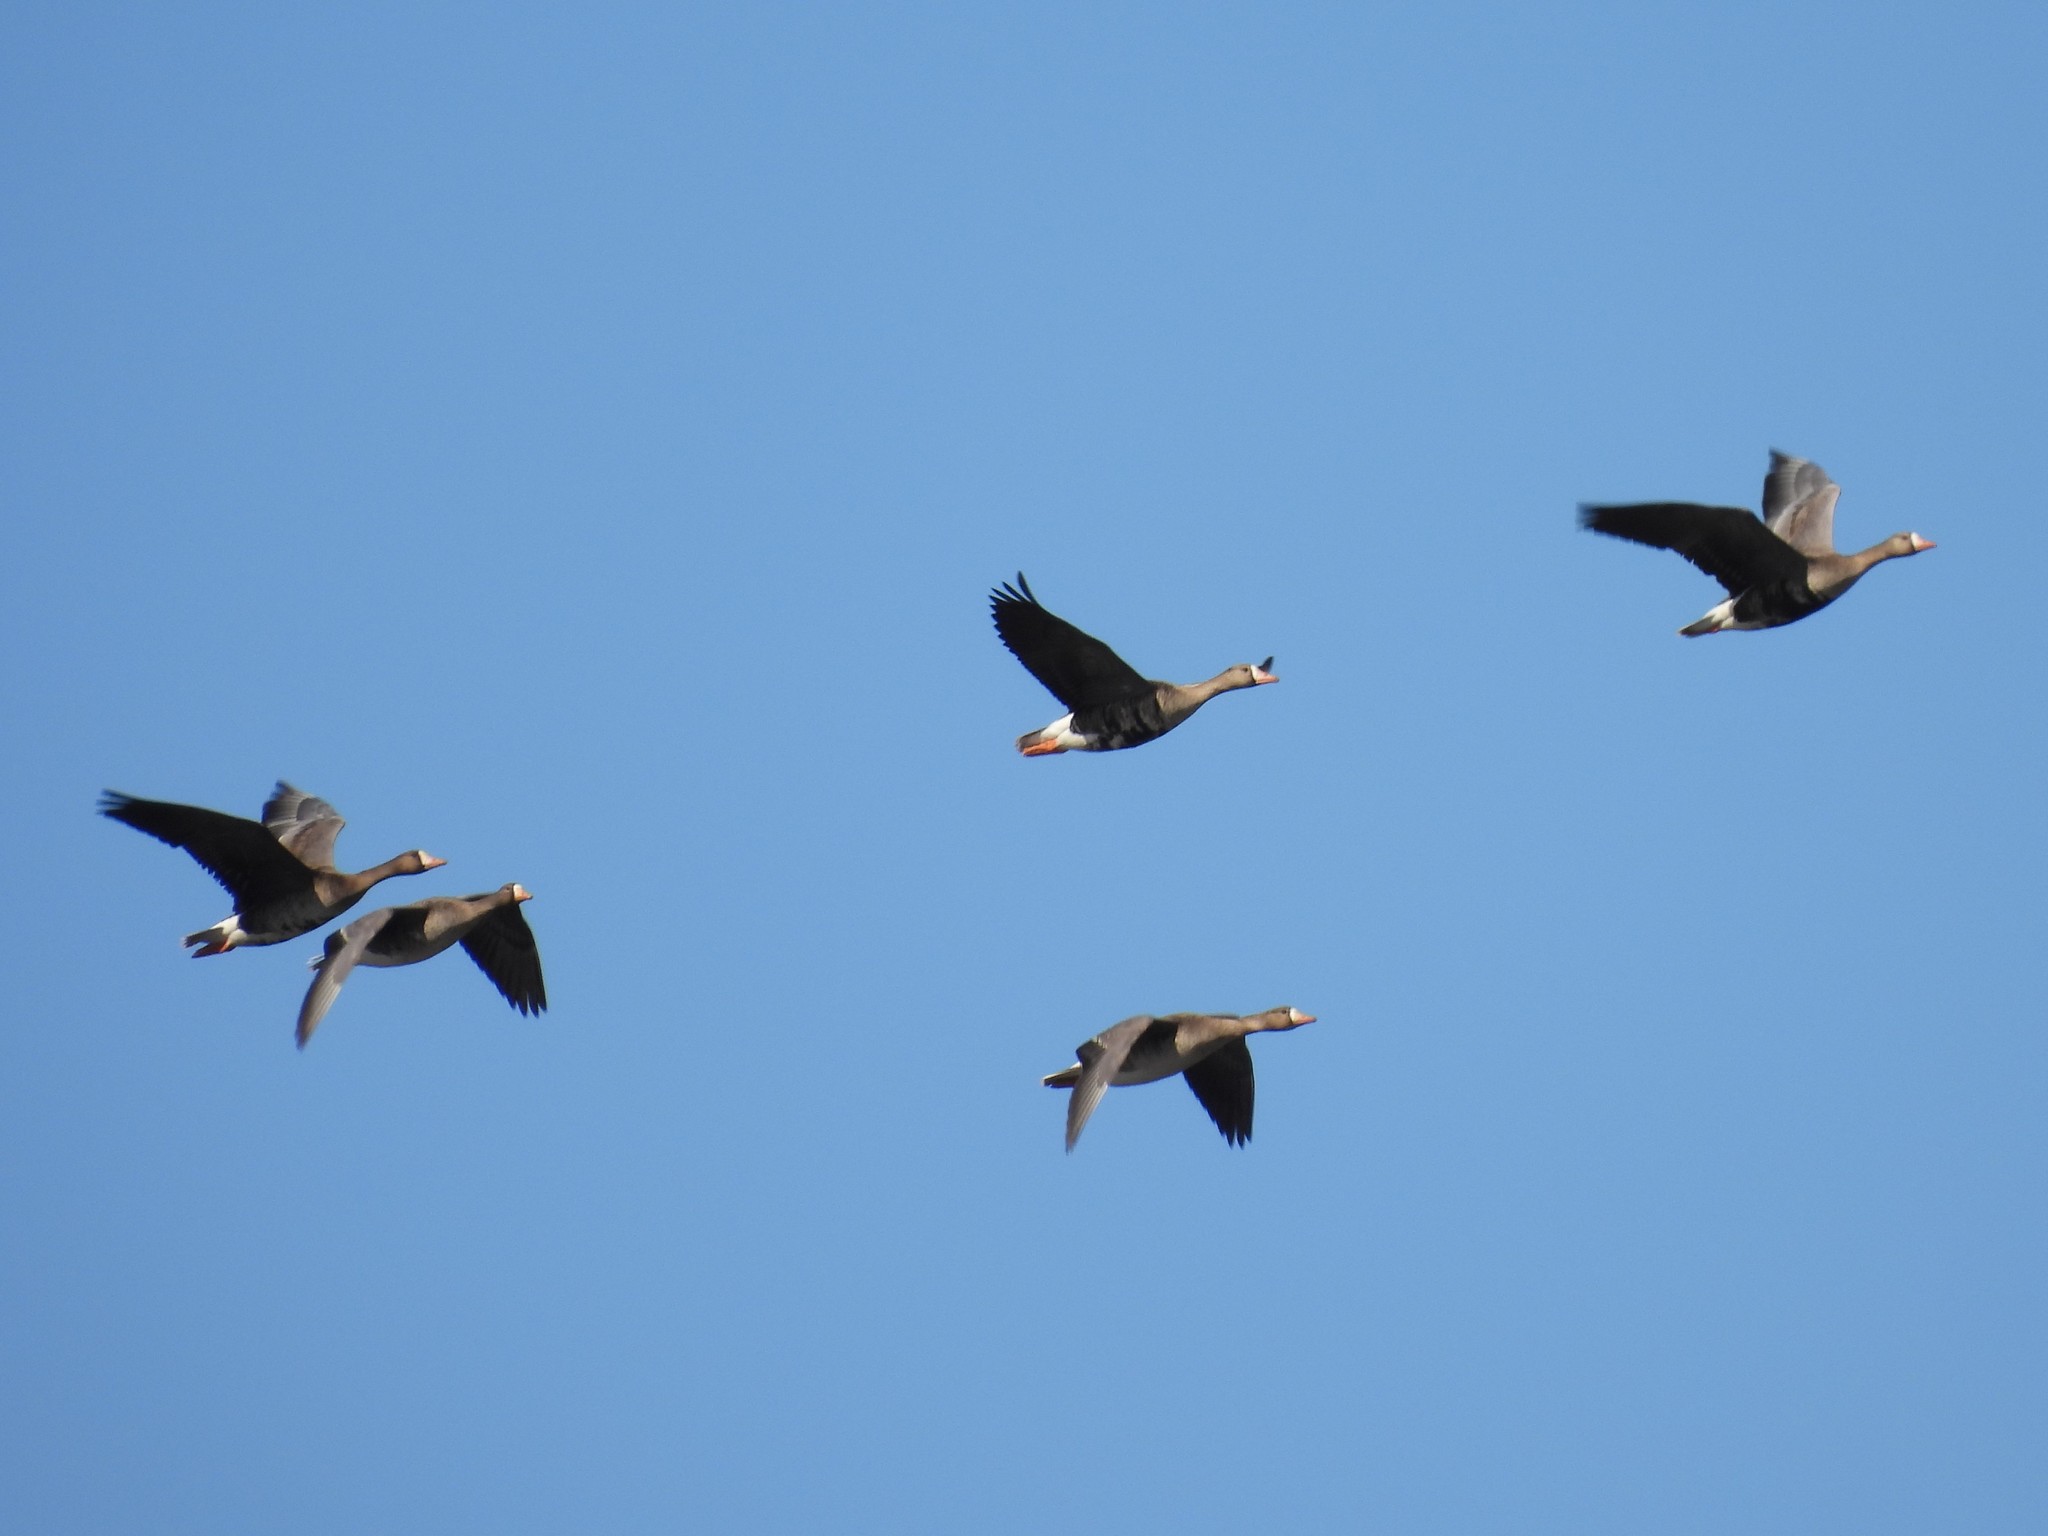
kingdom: Animalia
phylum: Chordata
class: Aves
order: Anseriformes
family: Anatidae
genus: Anser
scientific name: Anser albifrons
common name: Greater white-fronted goose
